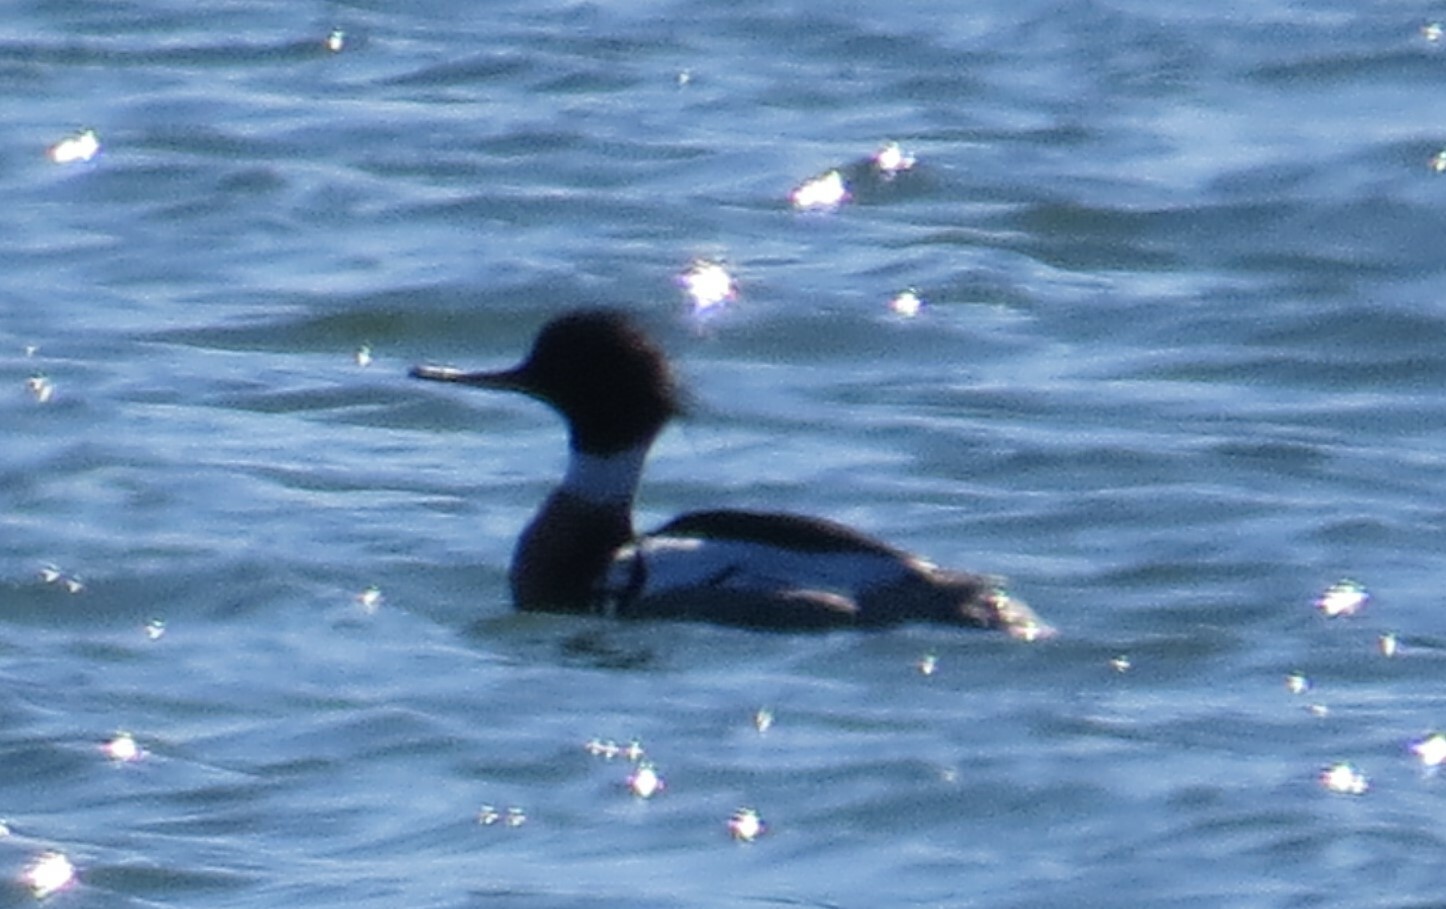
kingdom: Animalia
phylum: Chordata
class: Aves
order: Anseriformes
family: Anatidae
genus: Mergus
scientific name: Mergus serrator
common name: Red-breasted merganser
